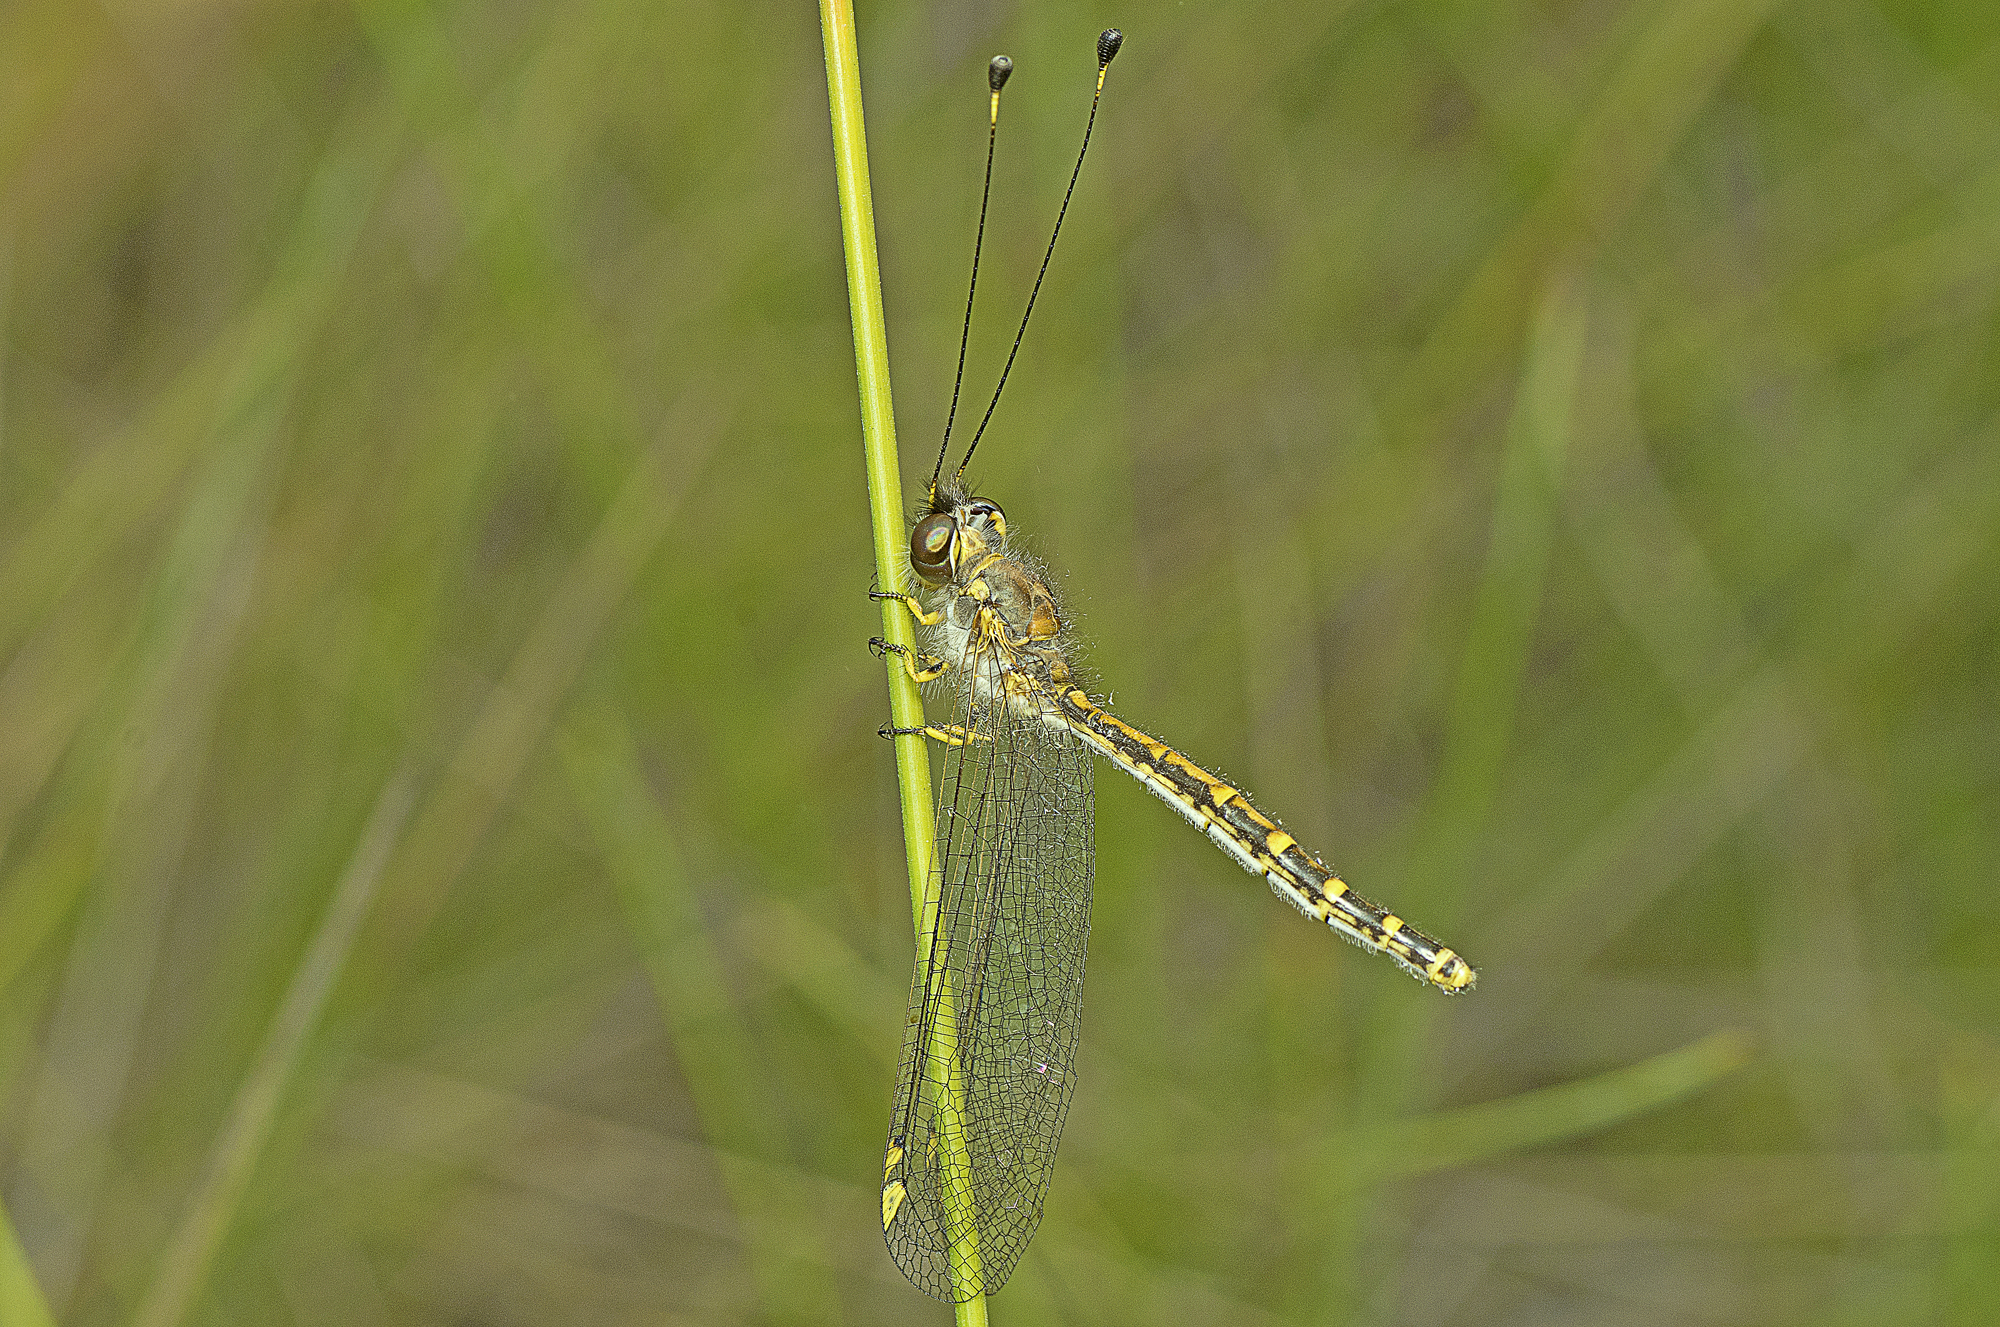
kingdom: Animalia
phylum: Arthropoda
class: Insecta
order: Neuroptera
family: Ascalaphidae
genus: Suhpalacsa
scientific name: Suhpalacsa flavipes
